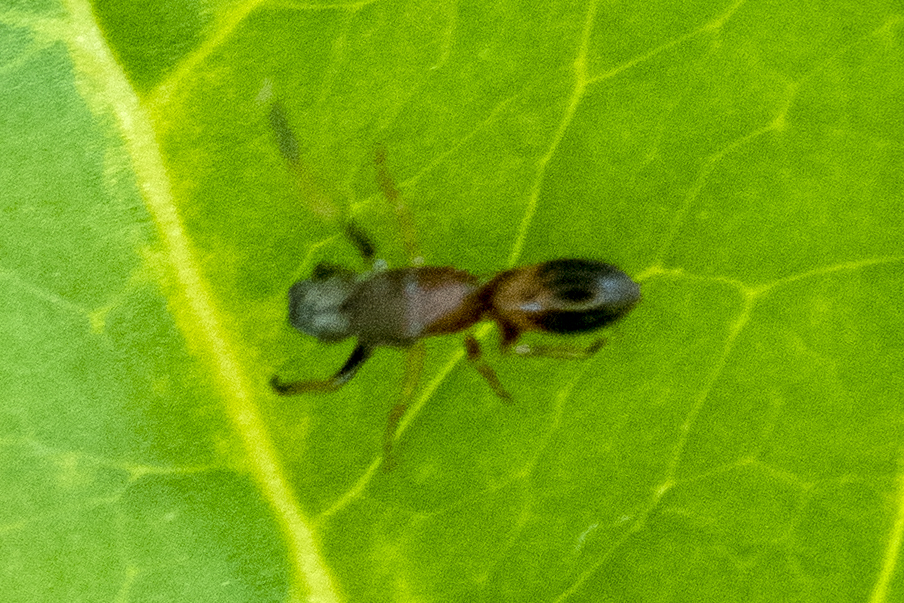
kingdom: Animalia
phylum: Arthropoda
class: Arachnida
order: Araneae
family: Salticidae
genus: Myrmarachne
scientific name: Myrmarachne formicaria
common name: Ant mimic jumping spider
